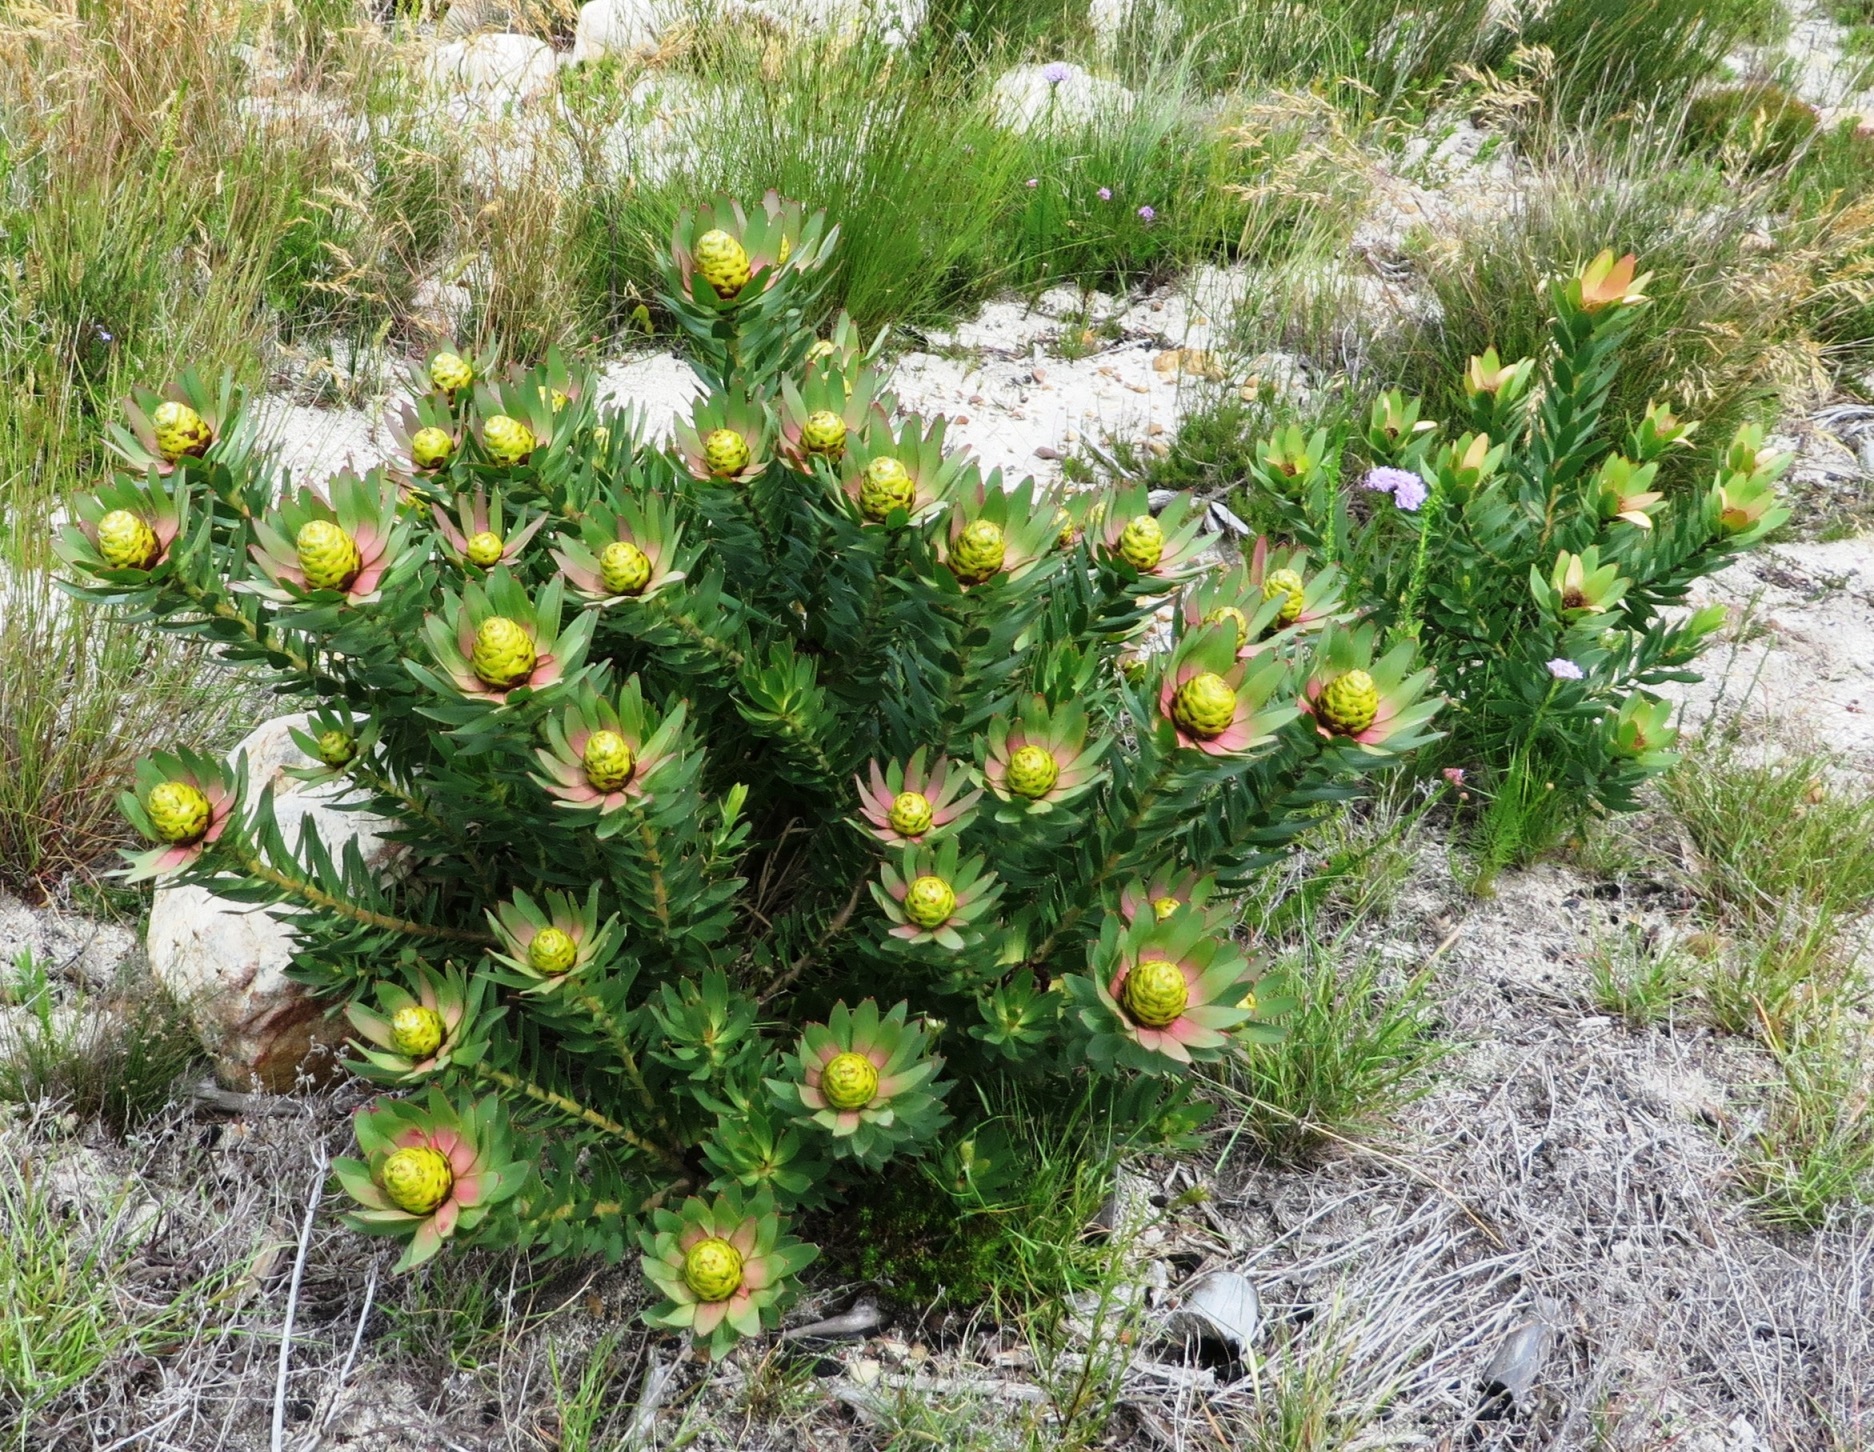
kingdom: Plantae
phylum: Tracheophyta
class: Magnoliopsida
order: Proteales
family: Proteaceae
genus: Leucadendron
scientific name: Leucadendron sessile
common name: Western sunbush
